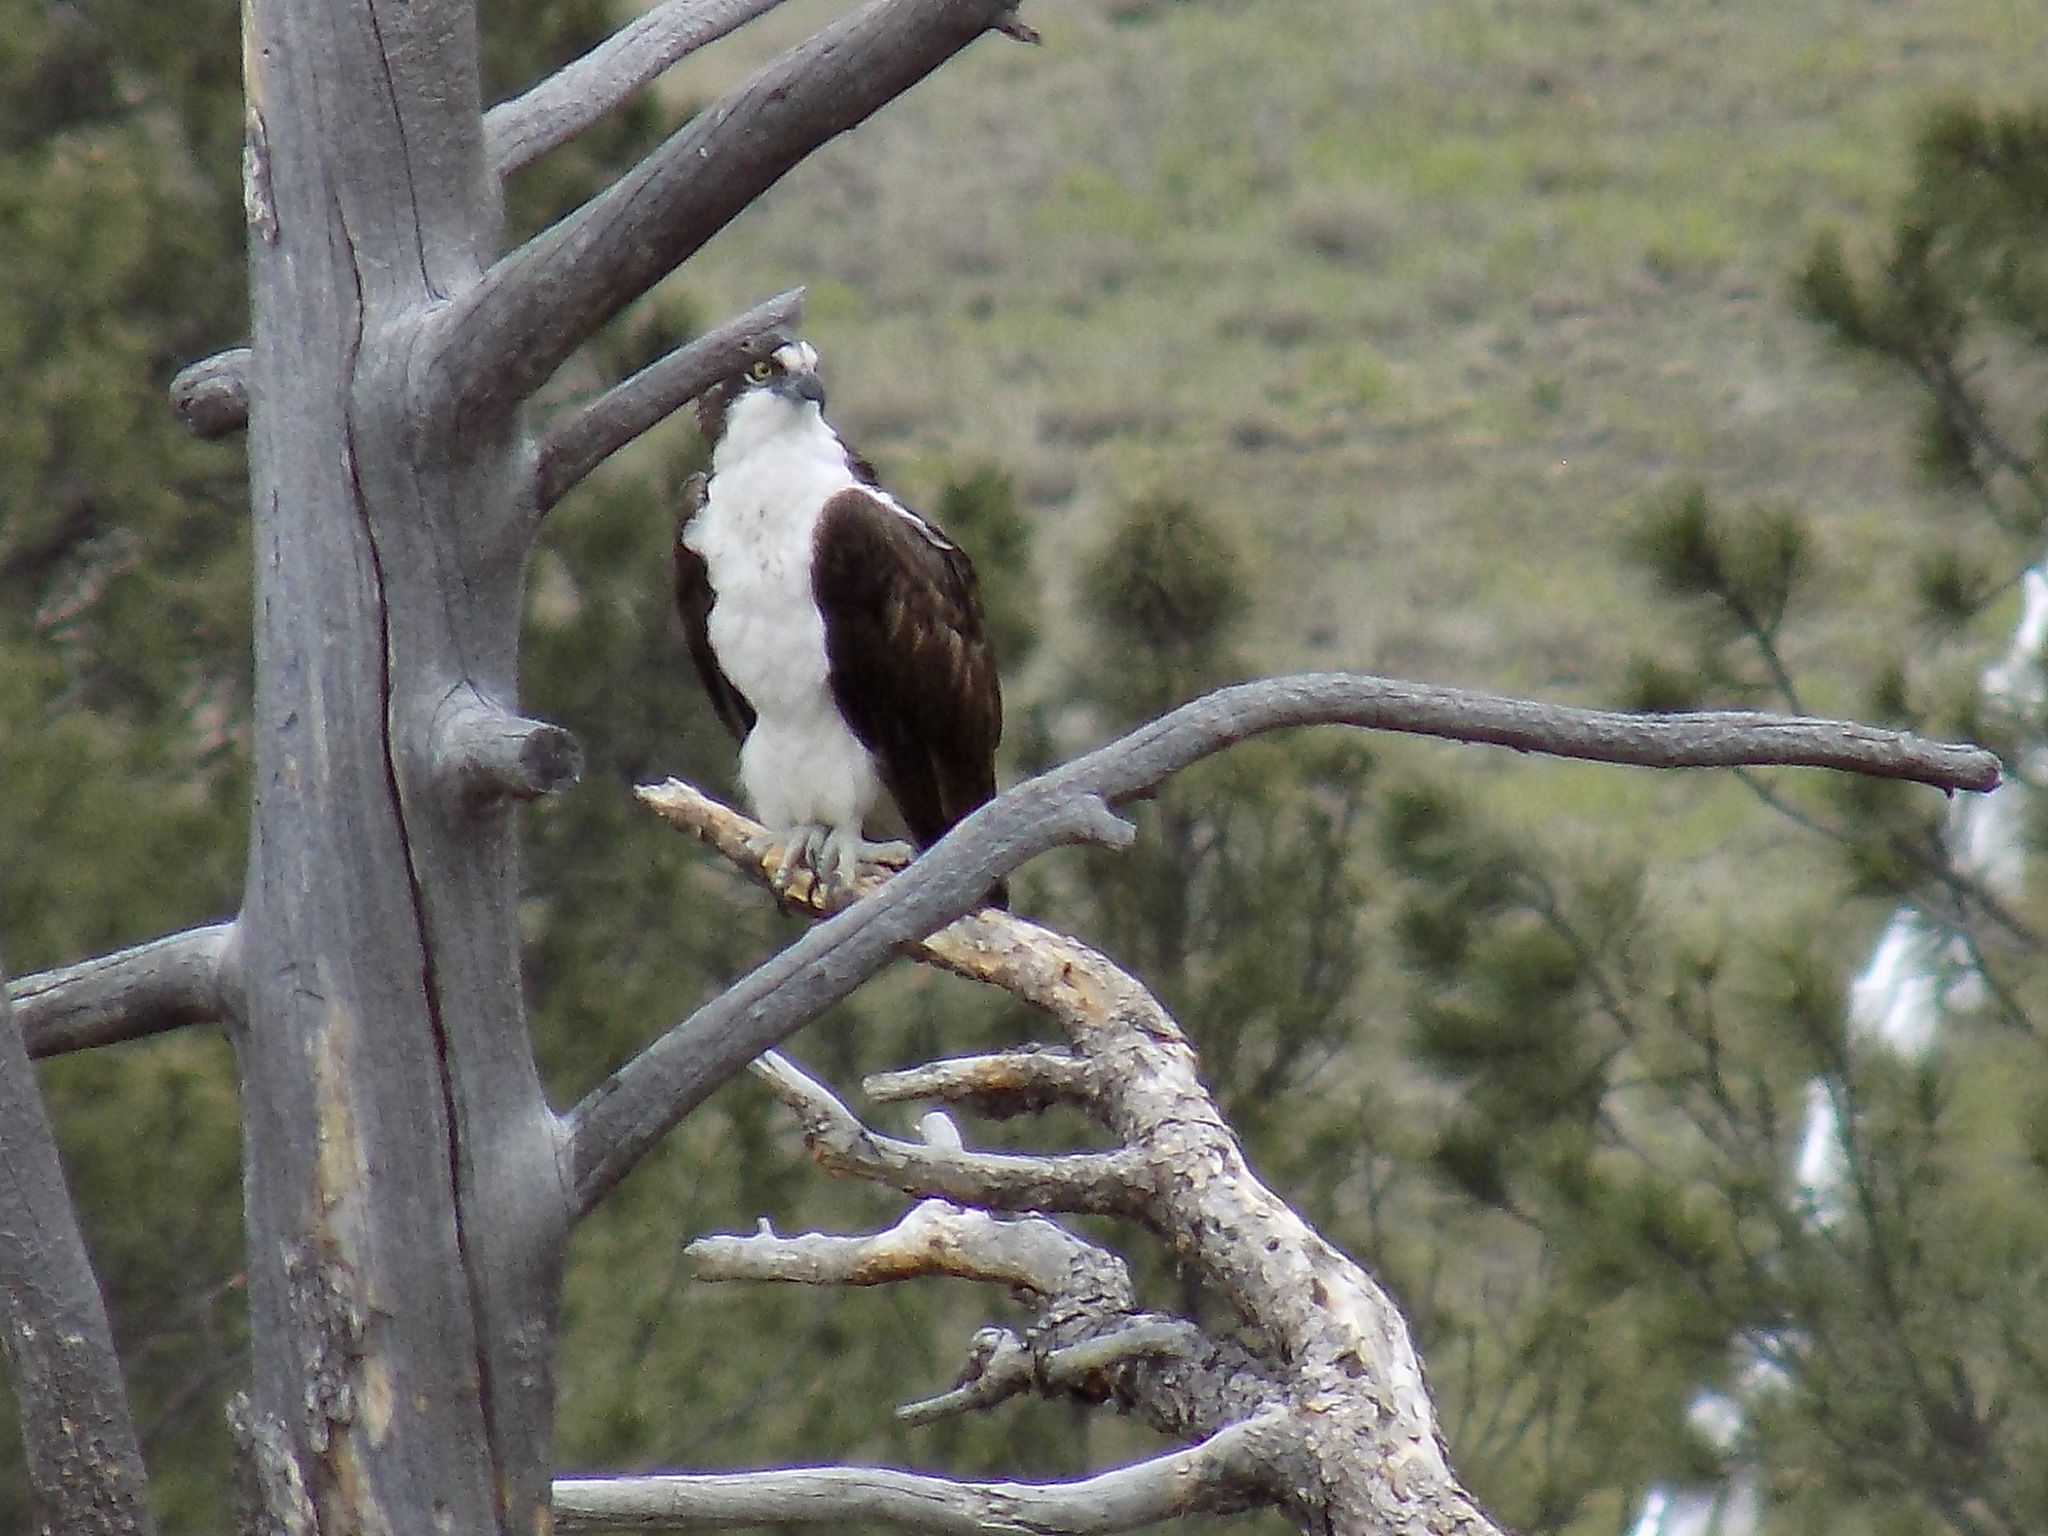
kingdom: Animalia
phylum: Chordata
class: Aves
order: Accipitriformes
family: Pandionidae
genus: Pandion
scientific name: Pandion haliaetus
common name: Osprey
